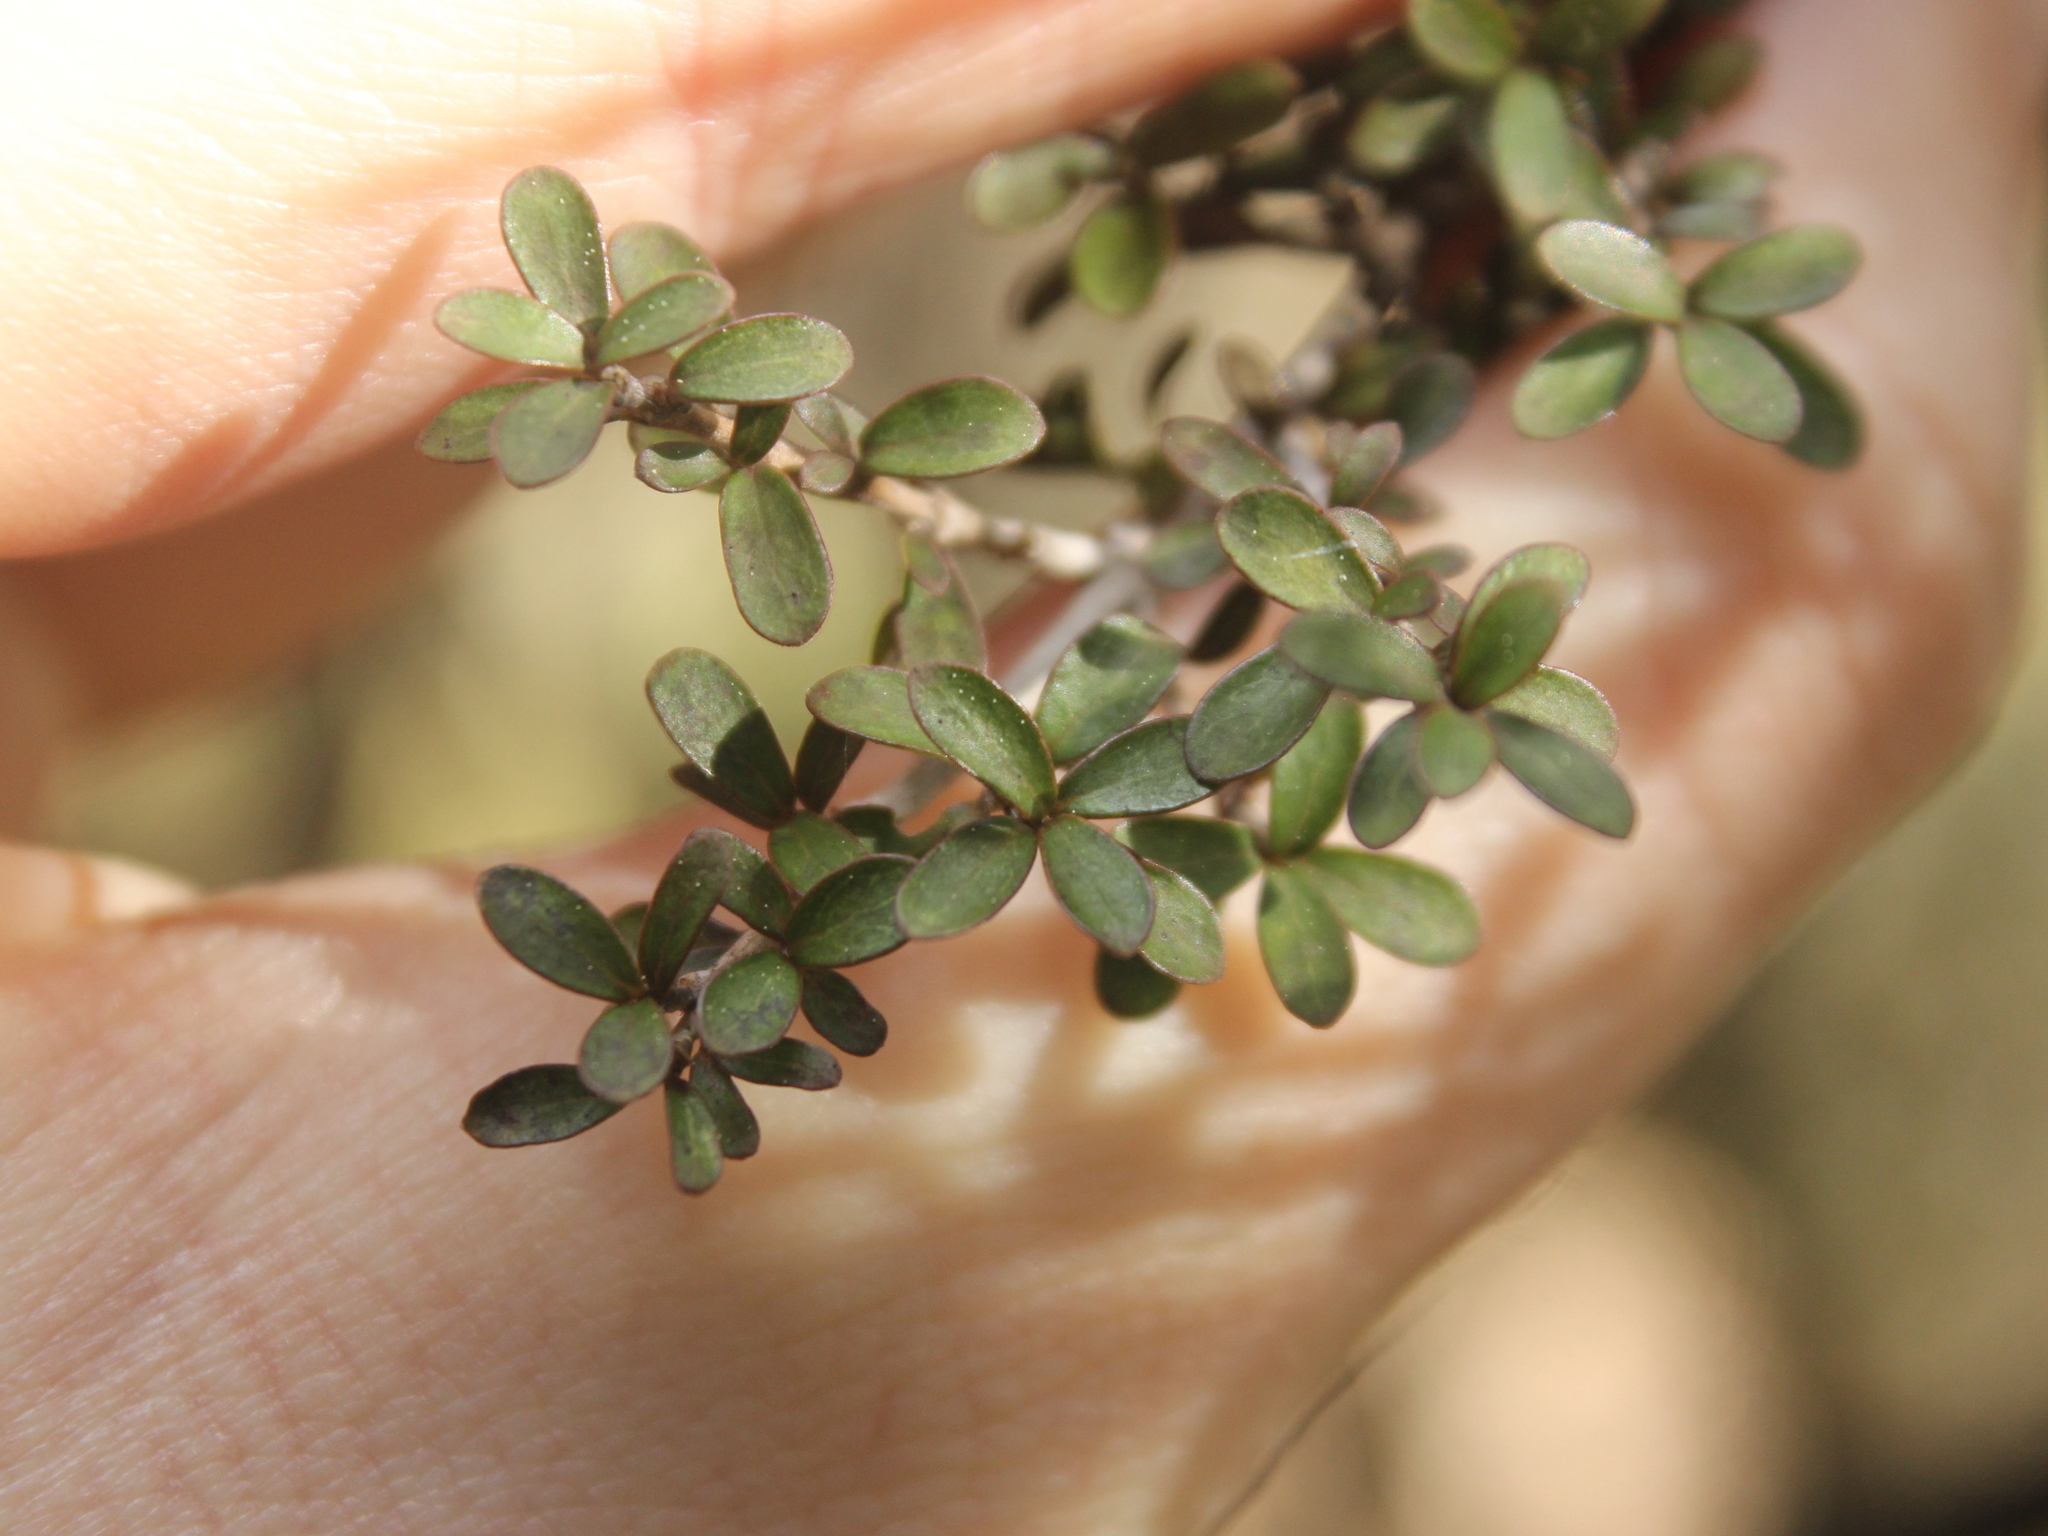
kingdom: Plantae
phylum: Tracheophyta
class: Magnoliopsida
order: Gentianales
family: Rubiaceae
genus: Coprosma
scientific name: Coprosma dumosa
